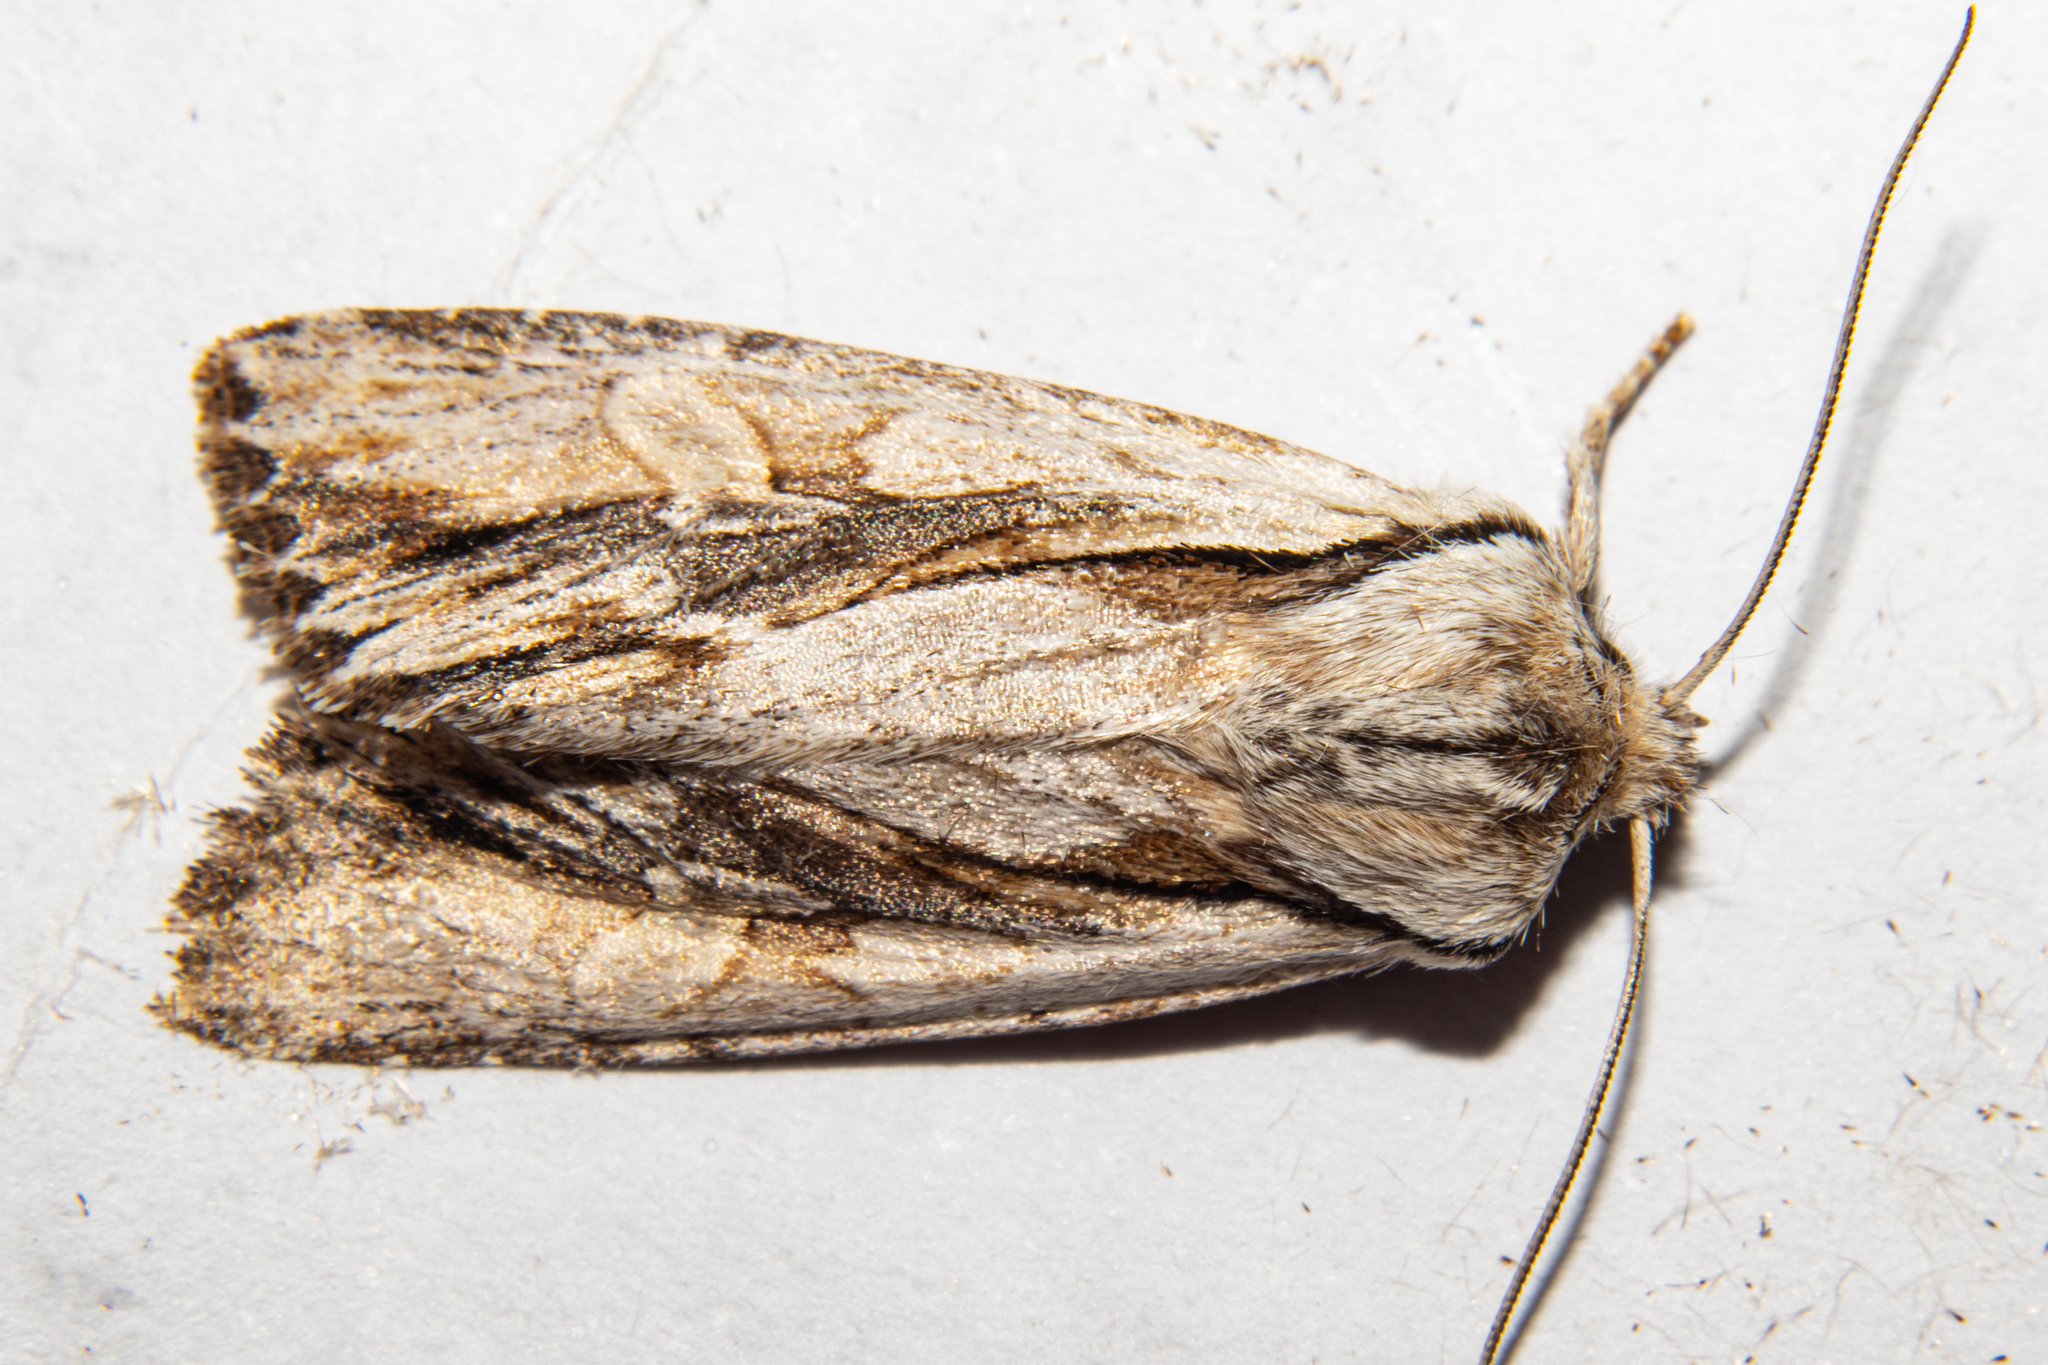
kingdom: Animalia
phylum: Arthropoda
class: Insecta
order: Lepidoptera
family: Noctuidae
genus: Ichneutica
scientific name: Ichneutica
